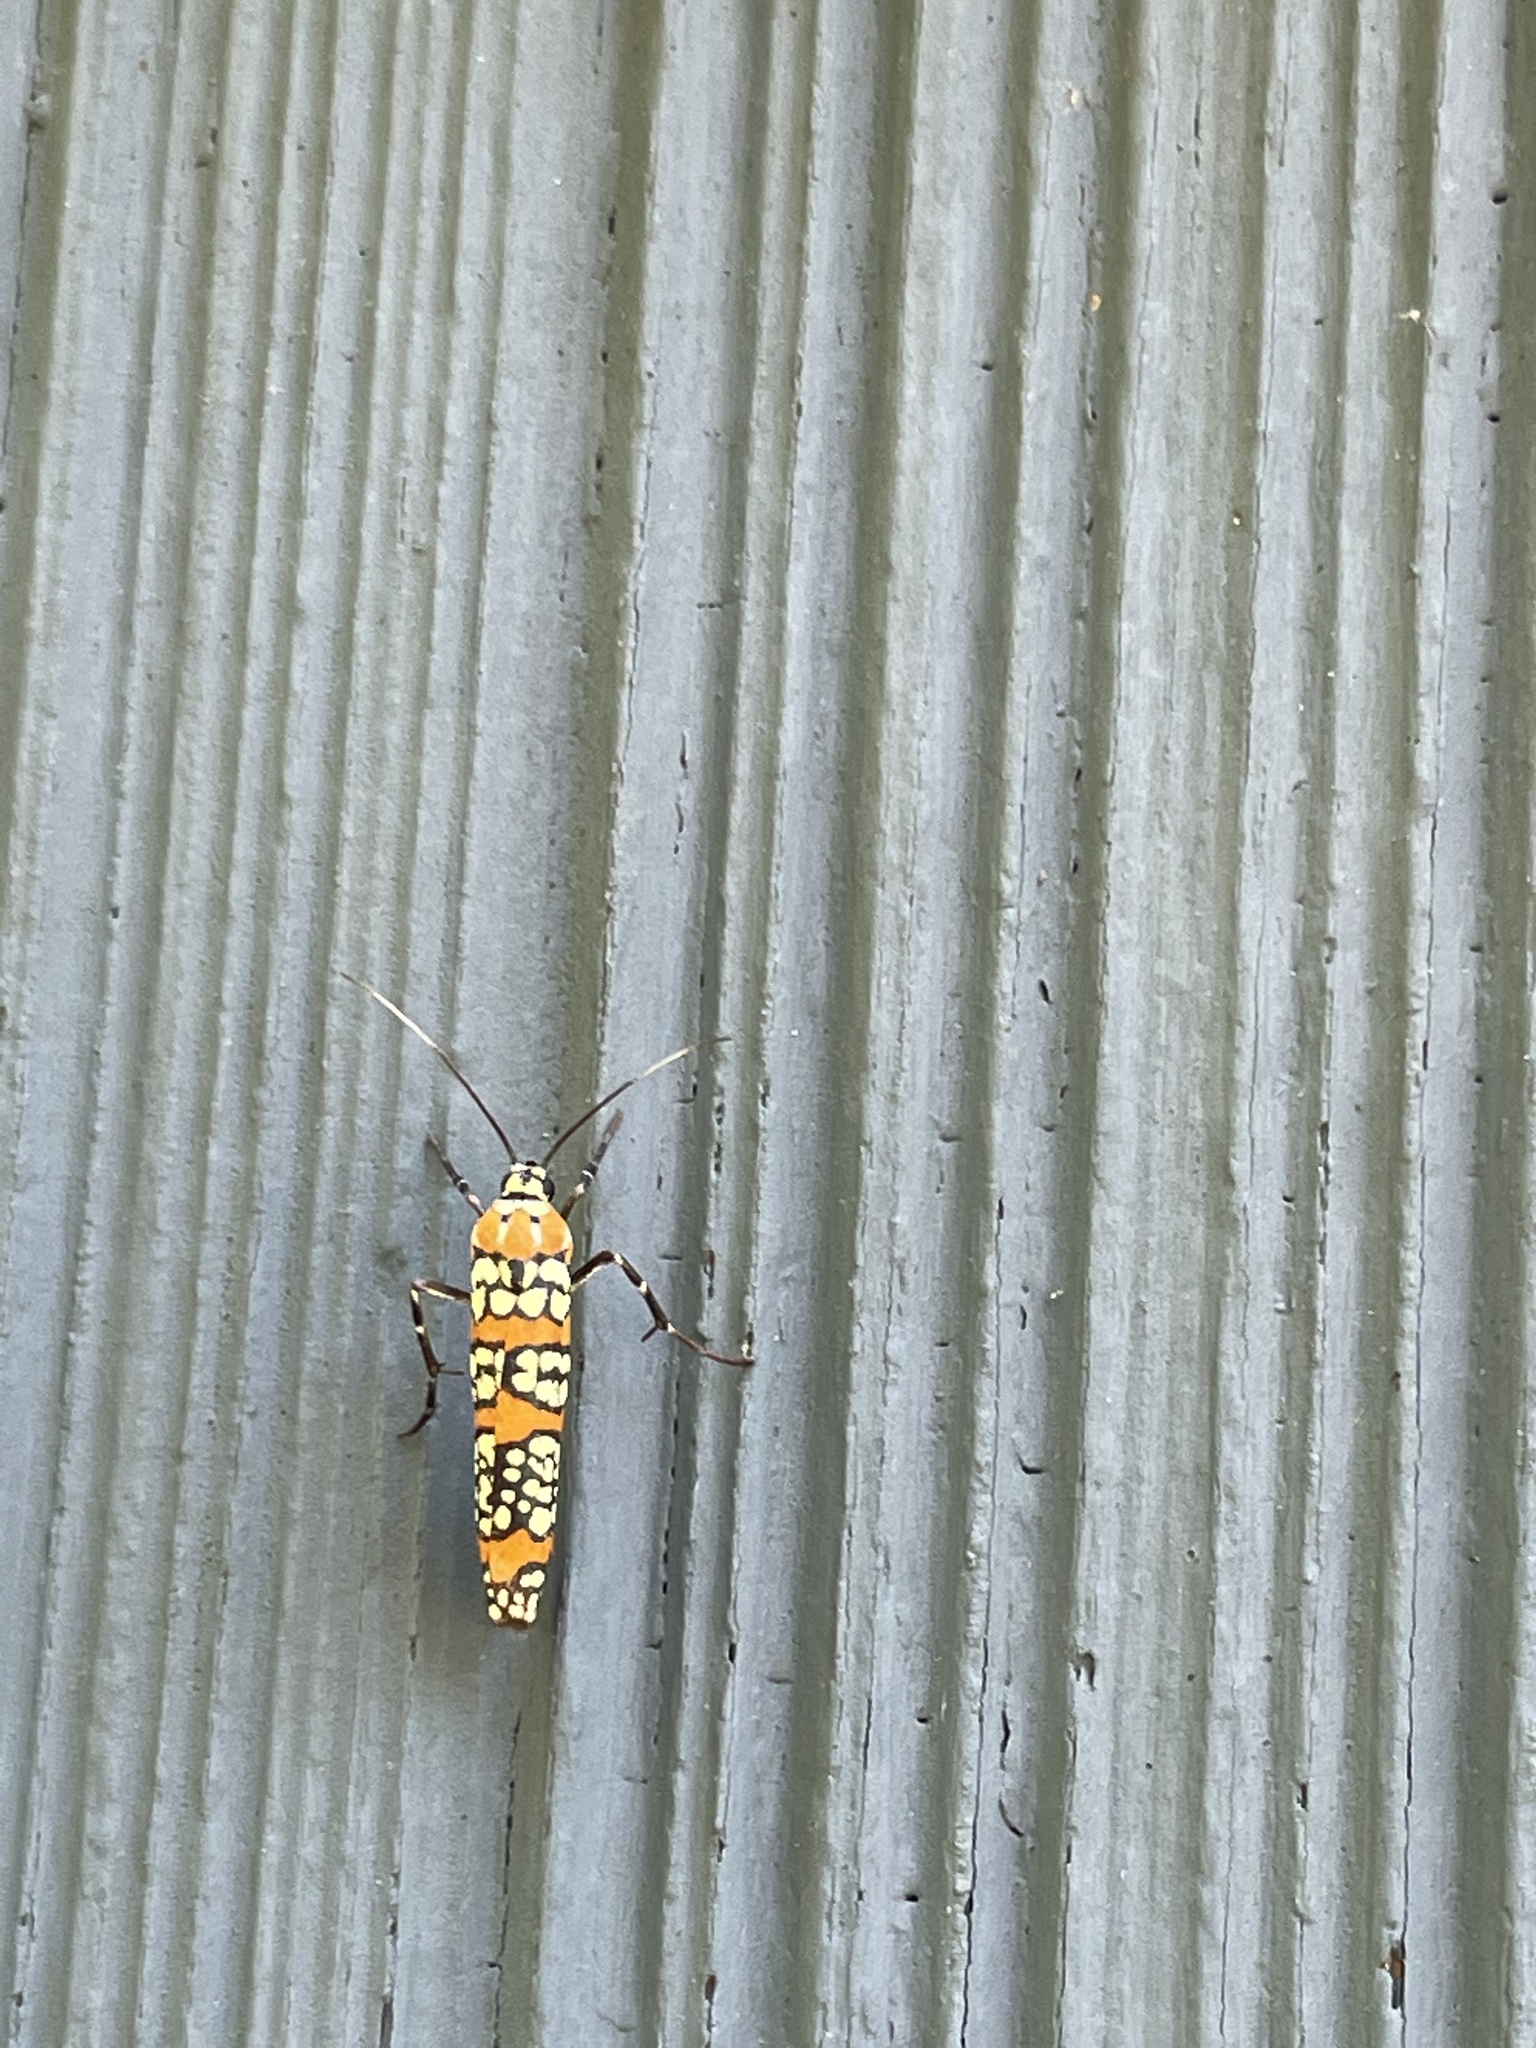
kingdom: Animalia
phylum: Arthropoda
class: Insecta
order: Lepidoptera
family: Attevidae
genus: Atteva
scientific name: Atteva punctella
